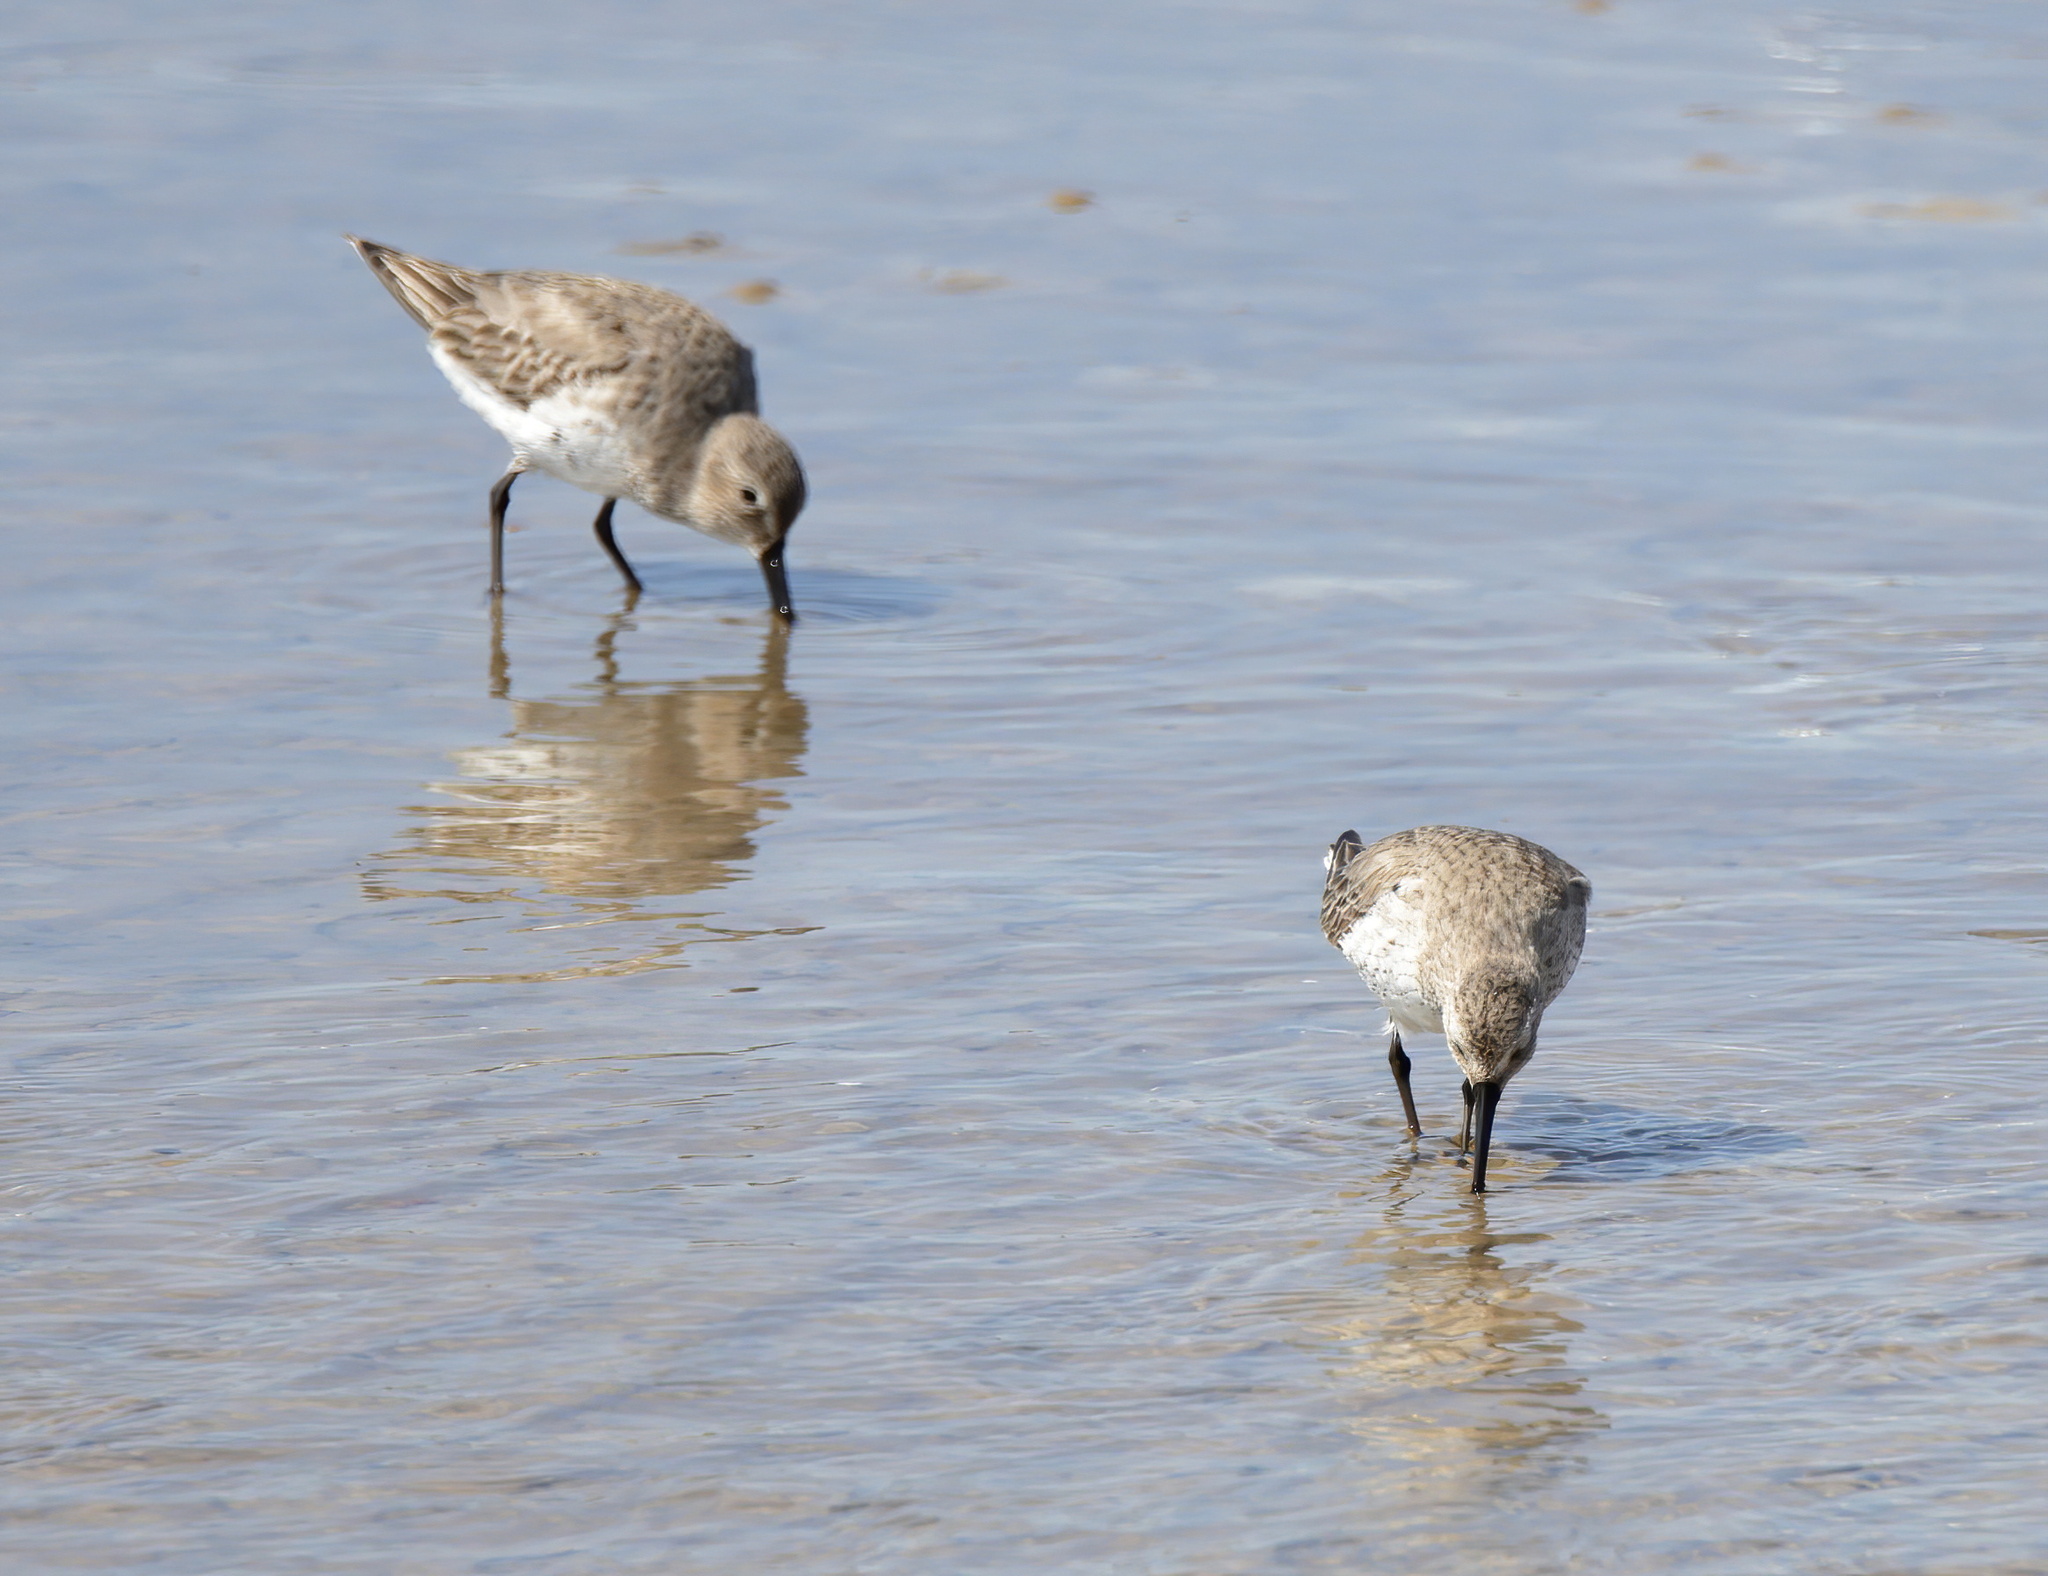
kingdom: Animalia
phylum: Chordata
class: Aves
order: Charadriiformes
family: Scolopacidae
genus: Calidris
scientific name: Calidris alpina
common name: Dunlin
